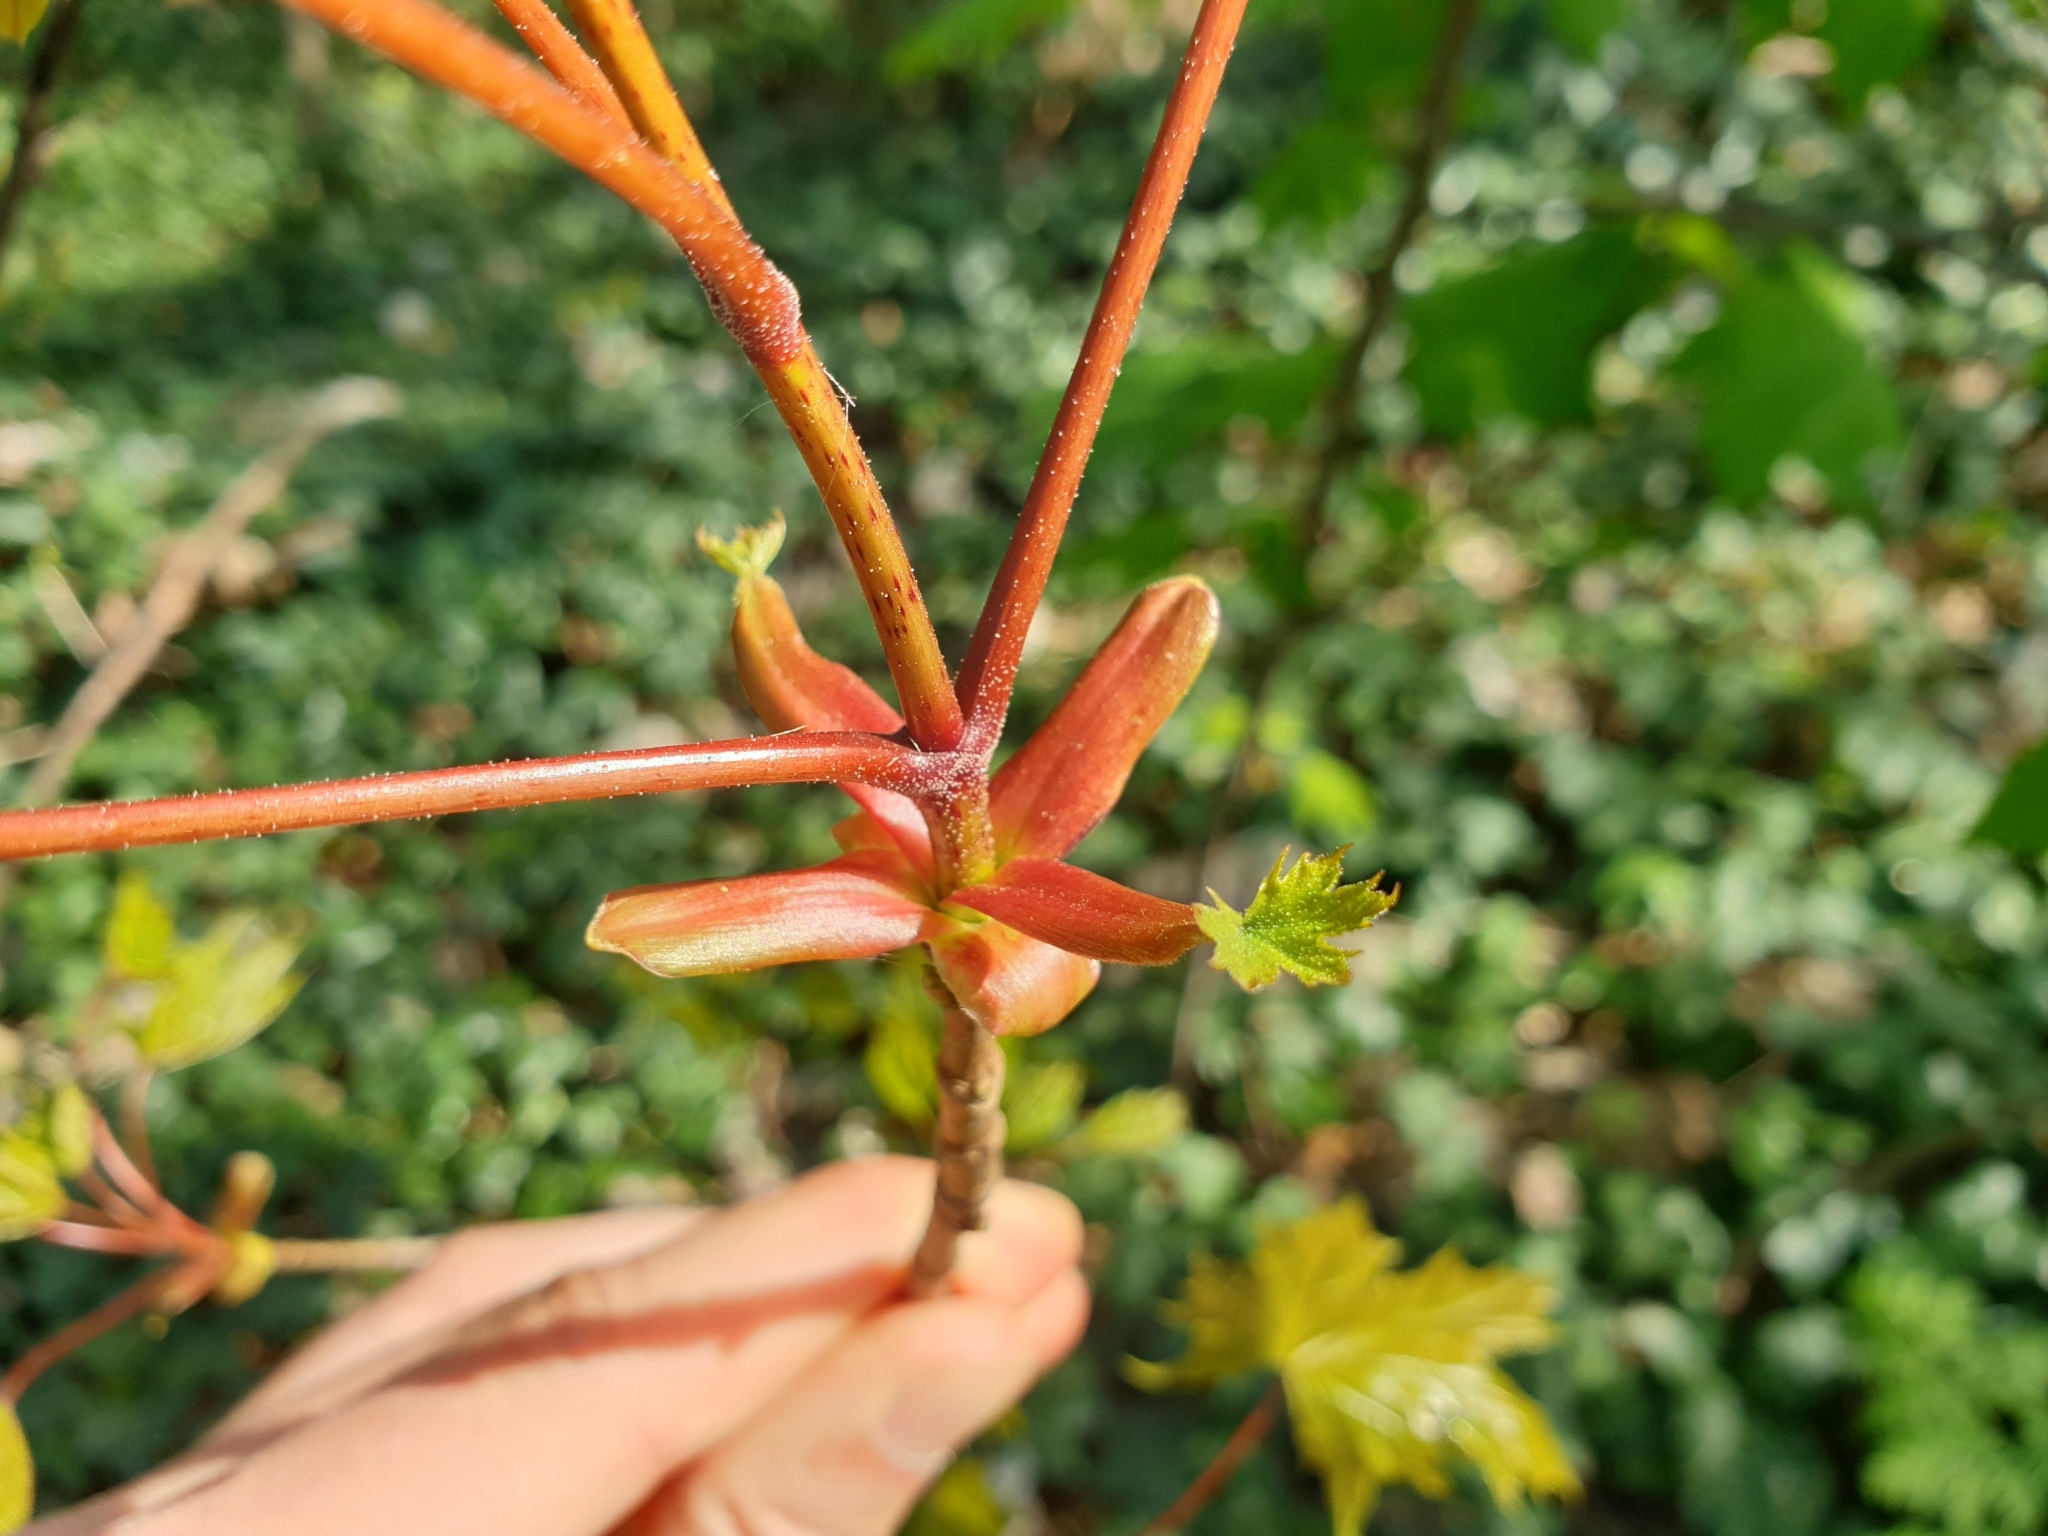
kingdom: Plantae
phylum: Tracheophyta
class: Magnoliopsida
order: Sapindales
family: Sapindaceae
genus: Acer
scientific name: Acer platanoides
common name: Norway maple
